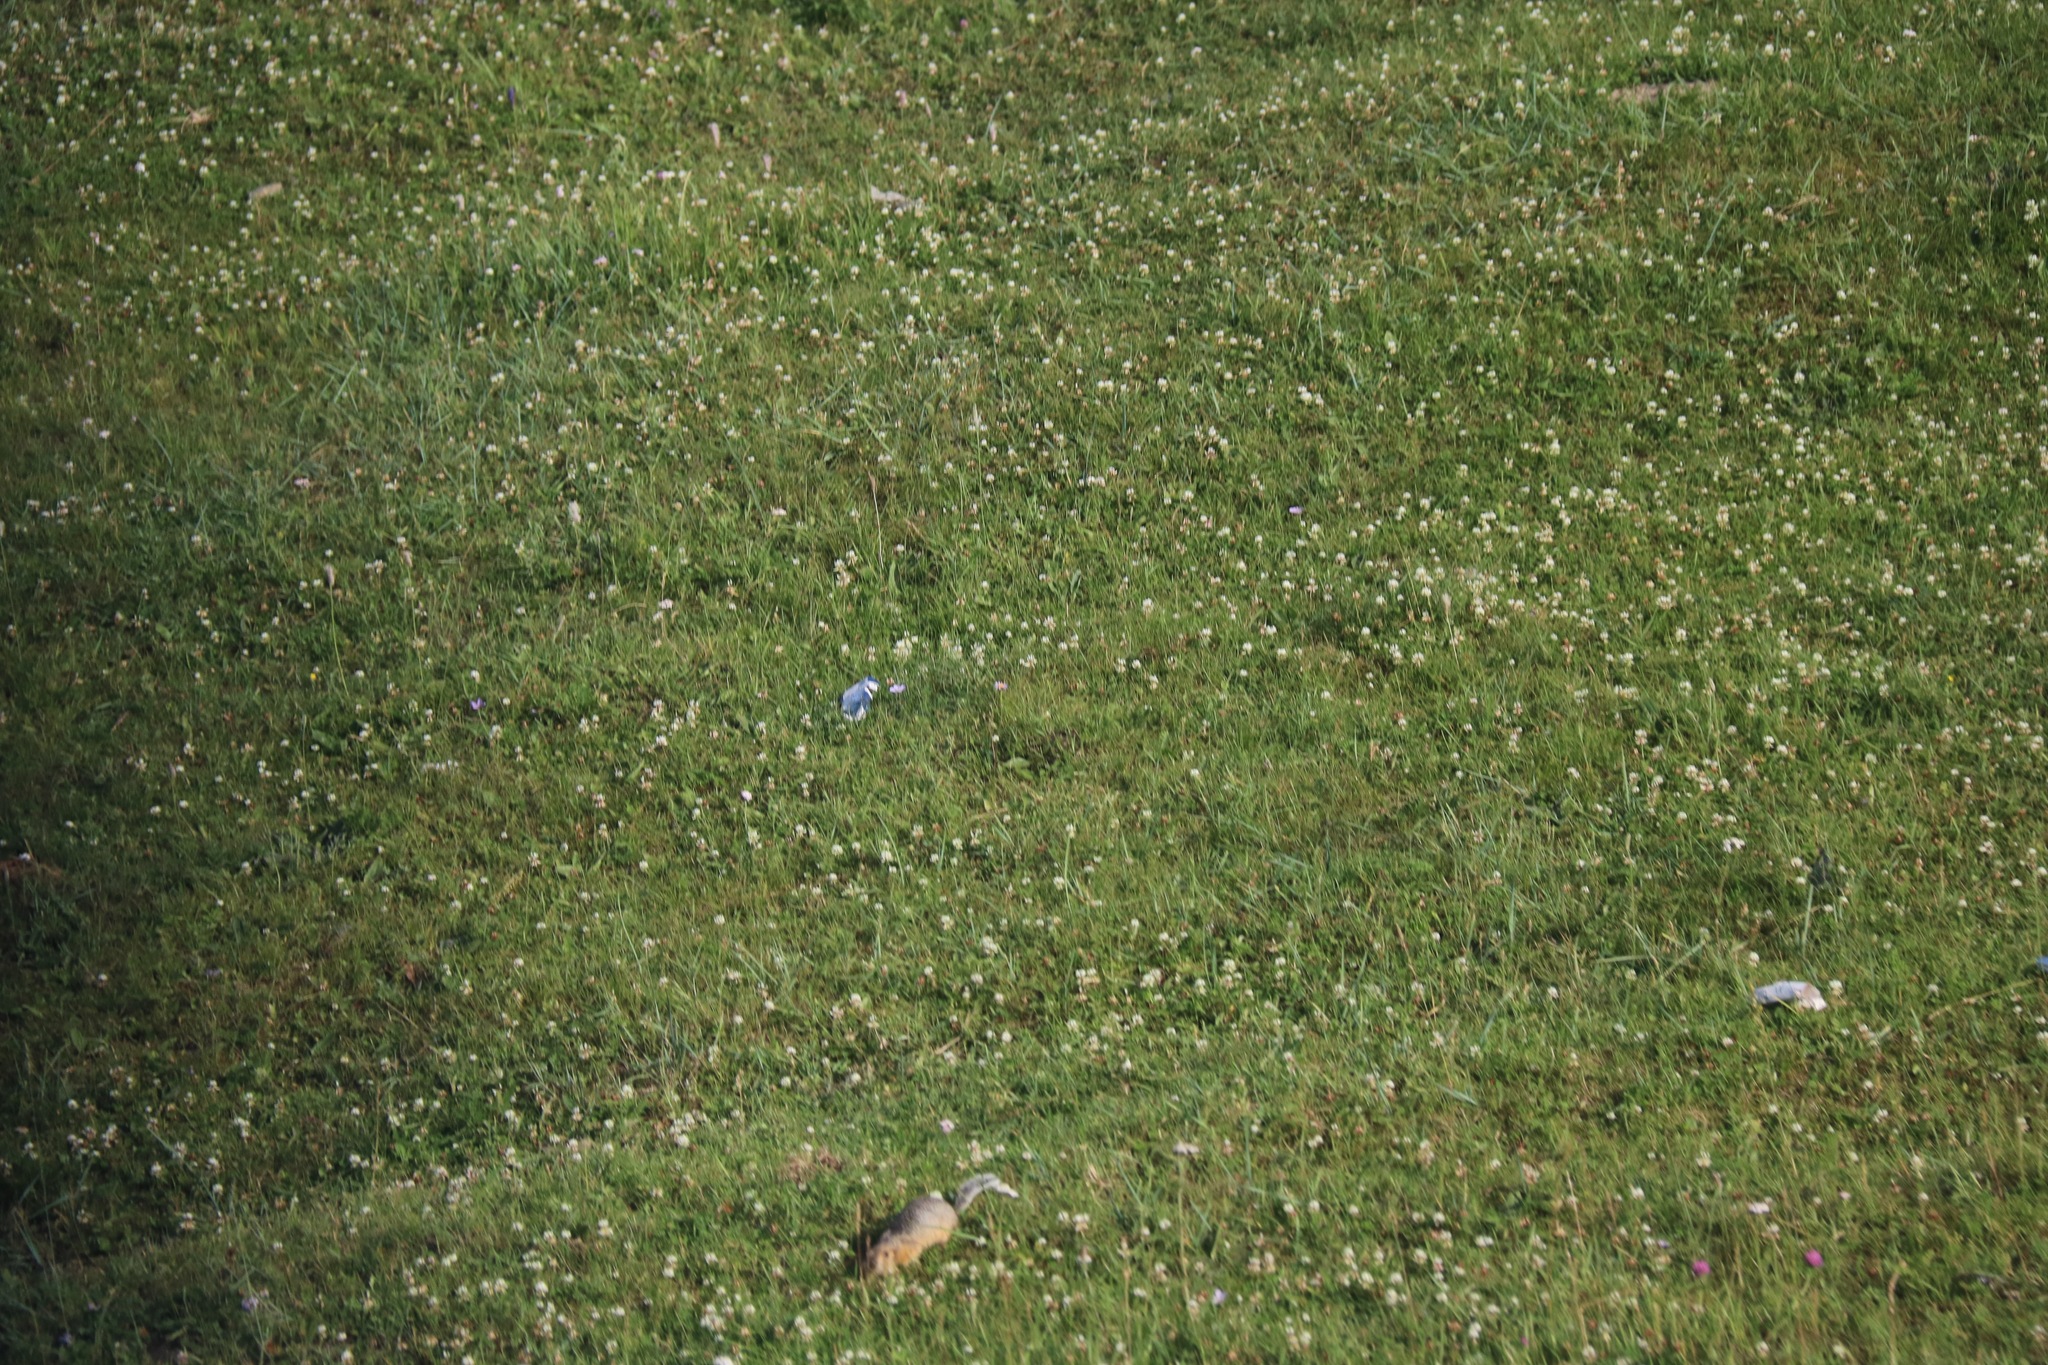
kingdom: Animalia
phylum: Chordata
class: Mammalia
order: Rodentia
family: Sciuridae
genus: Urocitellus
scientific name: Urocitellus undulatus
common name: Long-tailed ground squirrel
